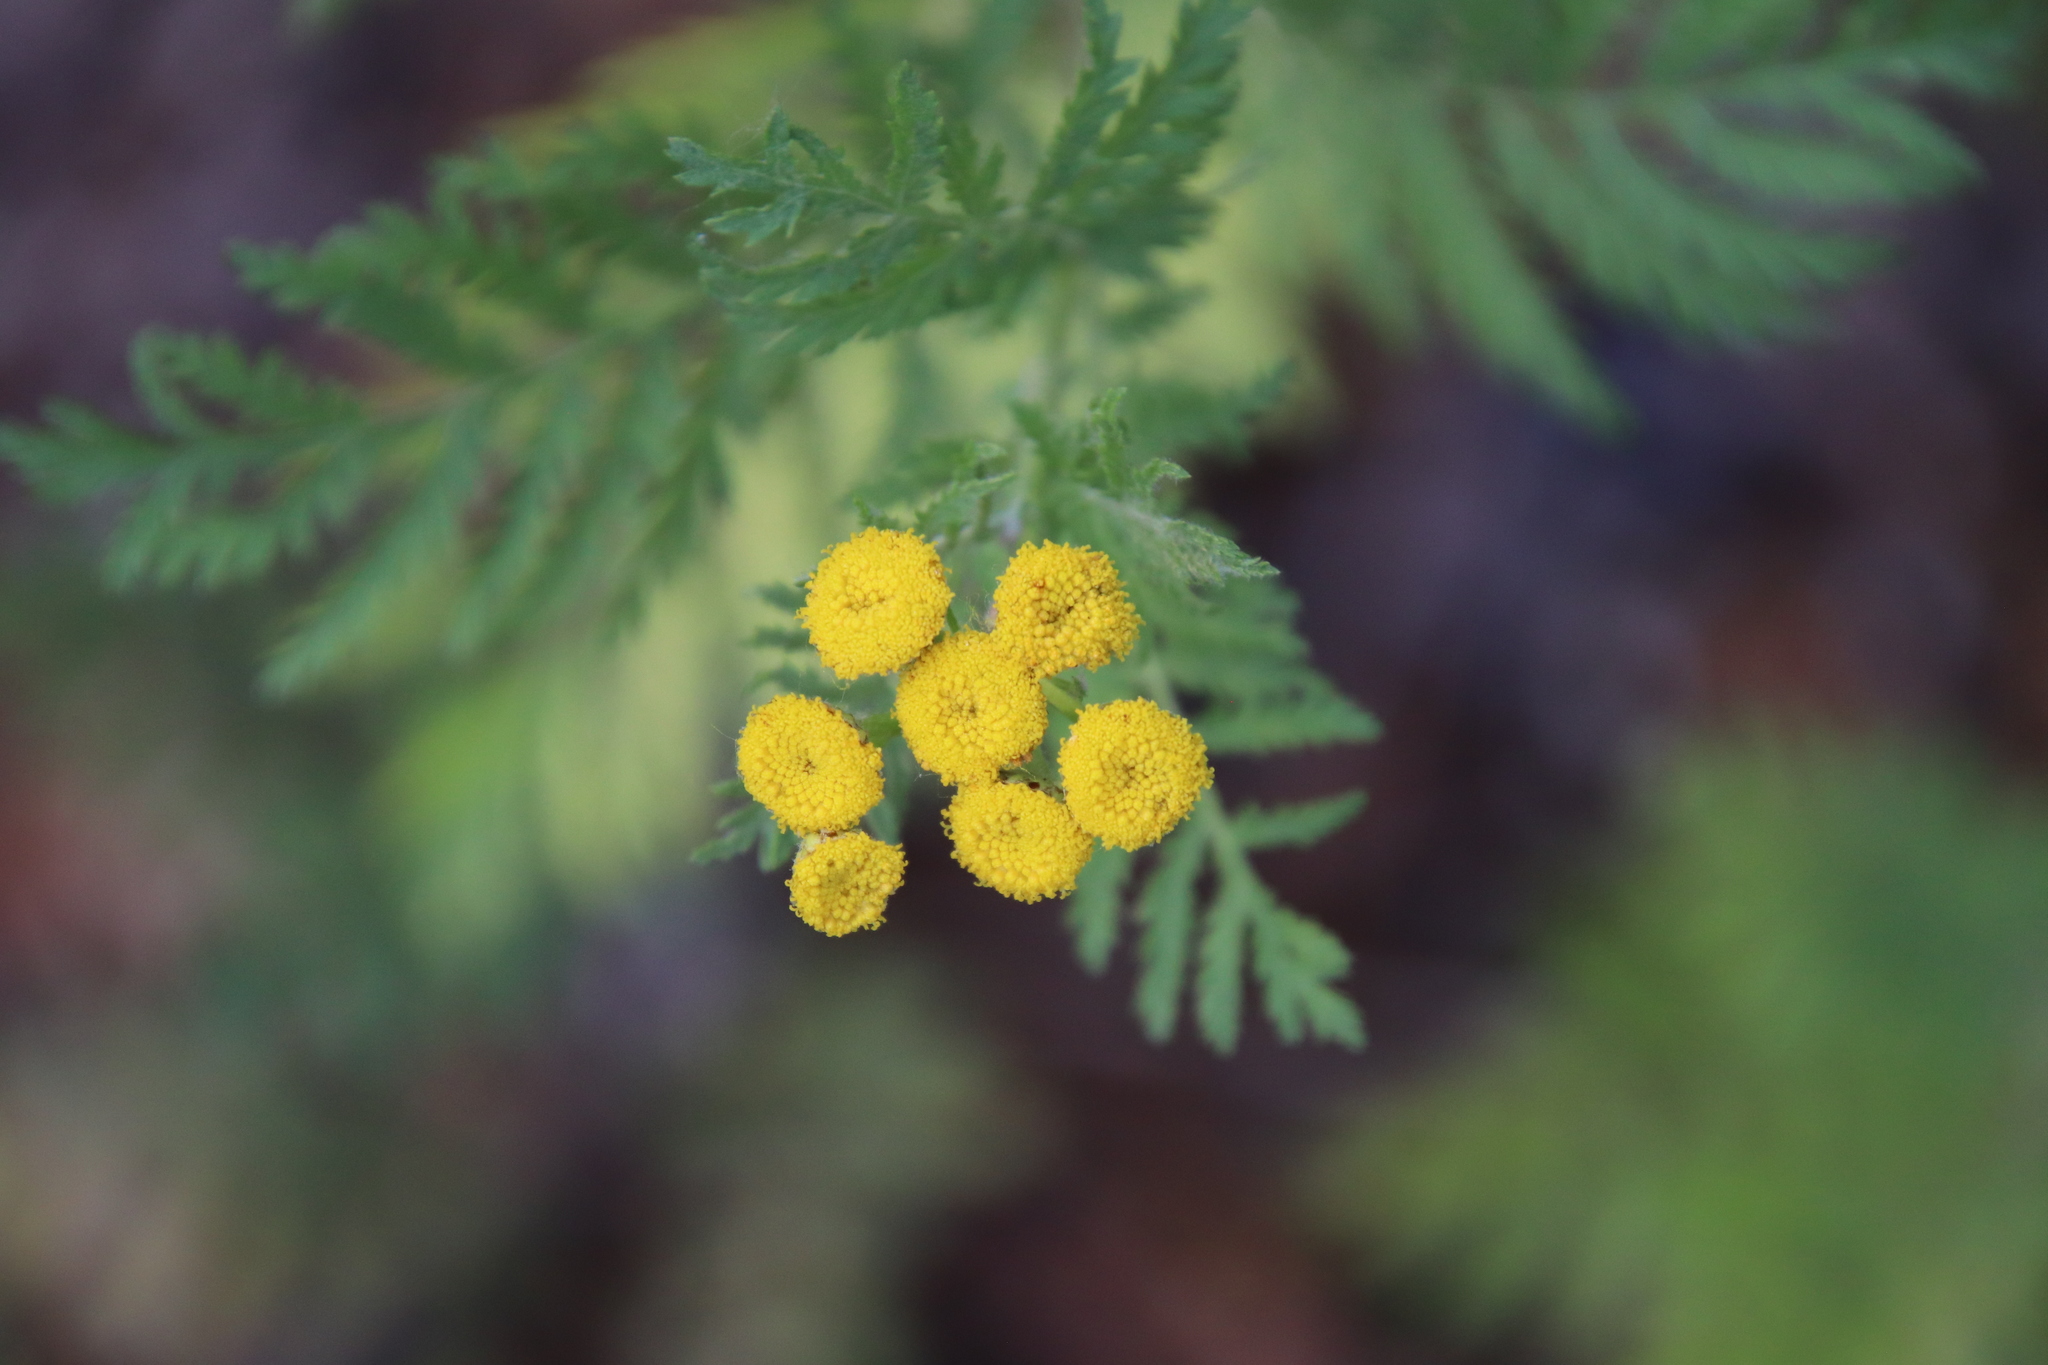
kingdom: Plantae
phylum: Tracheophyta
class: Magnoliopsida
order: Asterales
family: Asteraceae
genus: Tanacetum
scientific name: Tanacetum vulgare
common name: Common tansy
